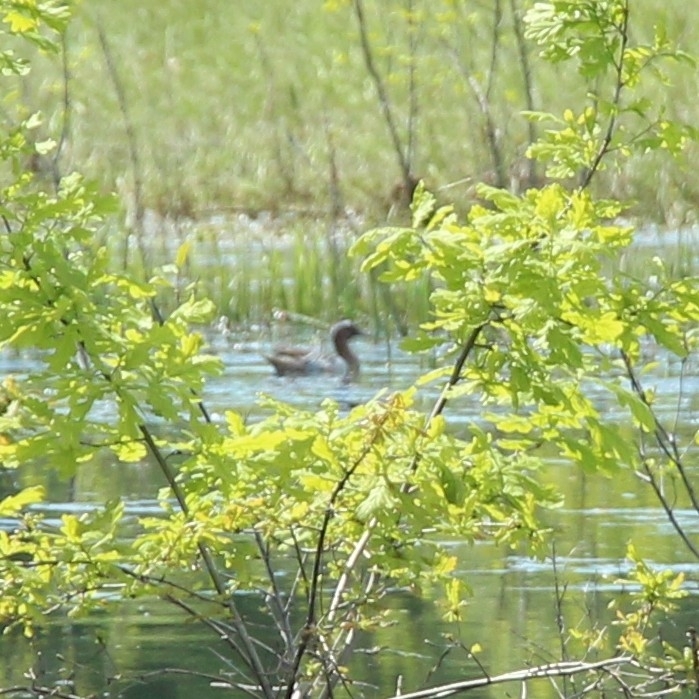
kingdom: Animalia
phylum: Chordata
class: Aves
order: Anseriformes
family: Anatidae
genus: Spatula
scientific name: Spatula querquedula
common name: Garganey
